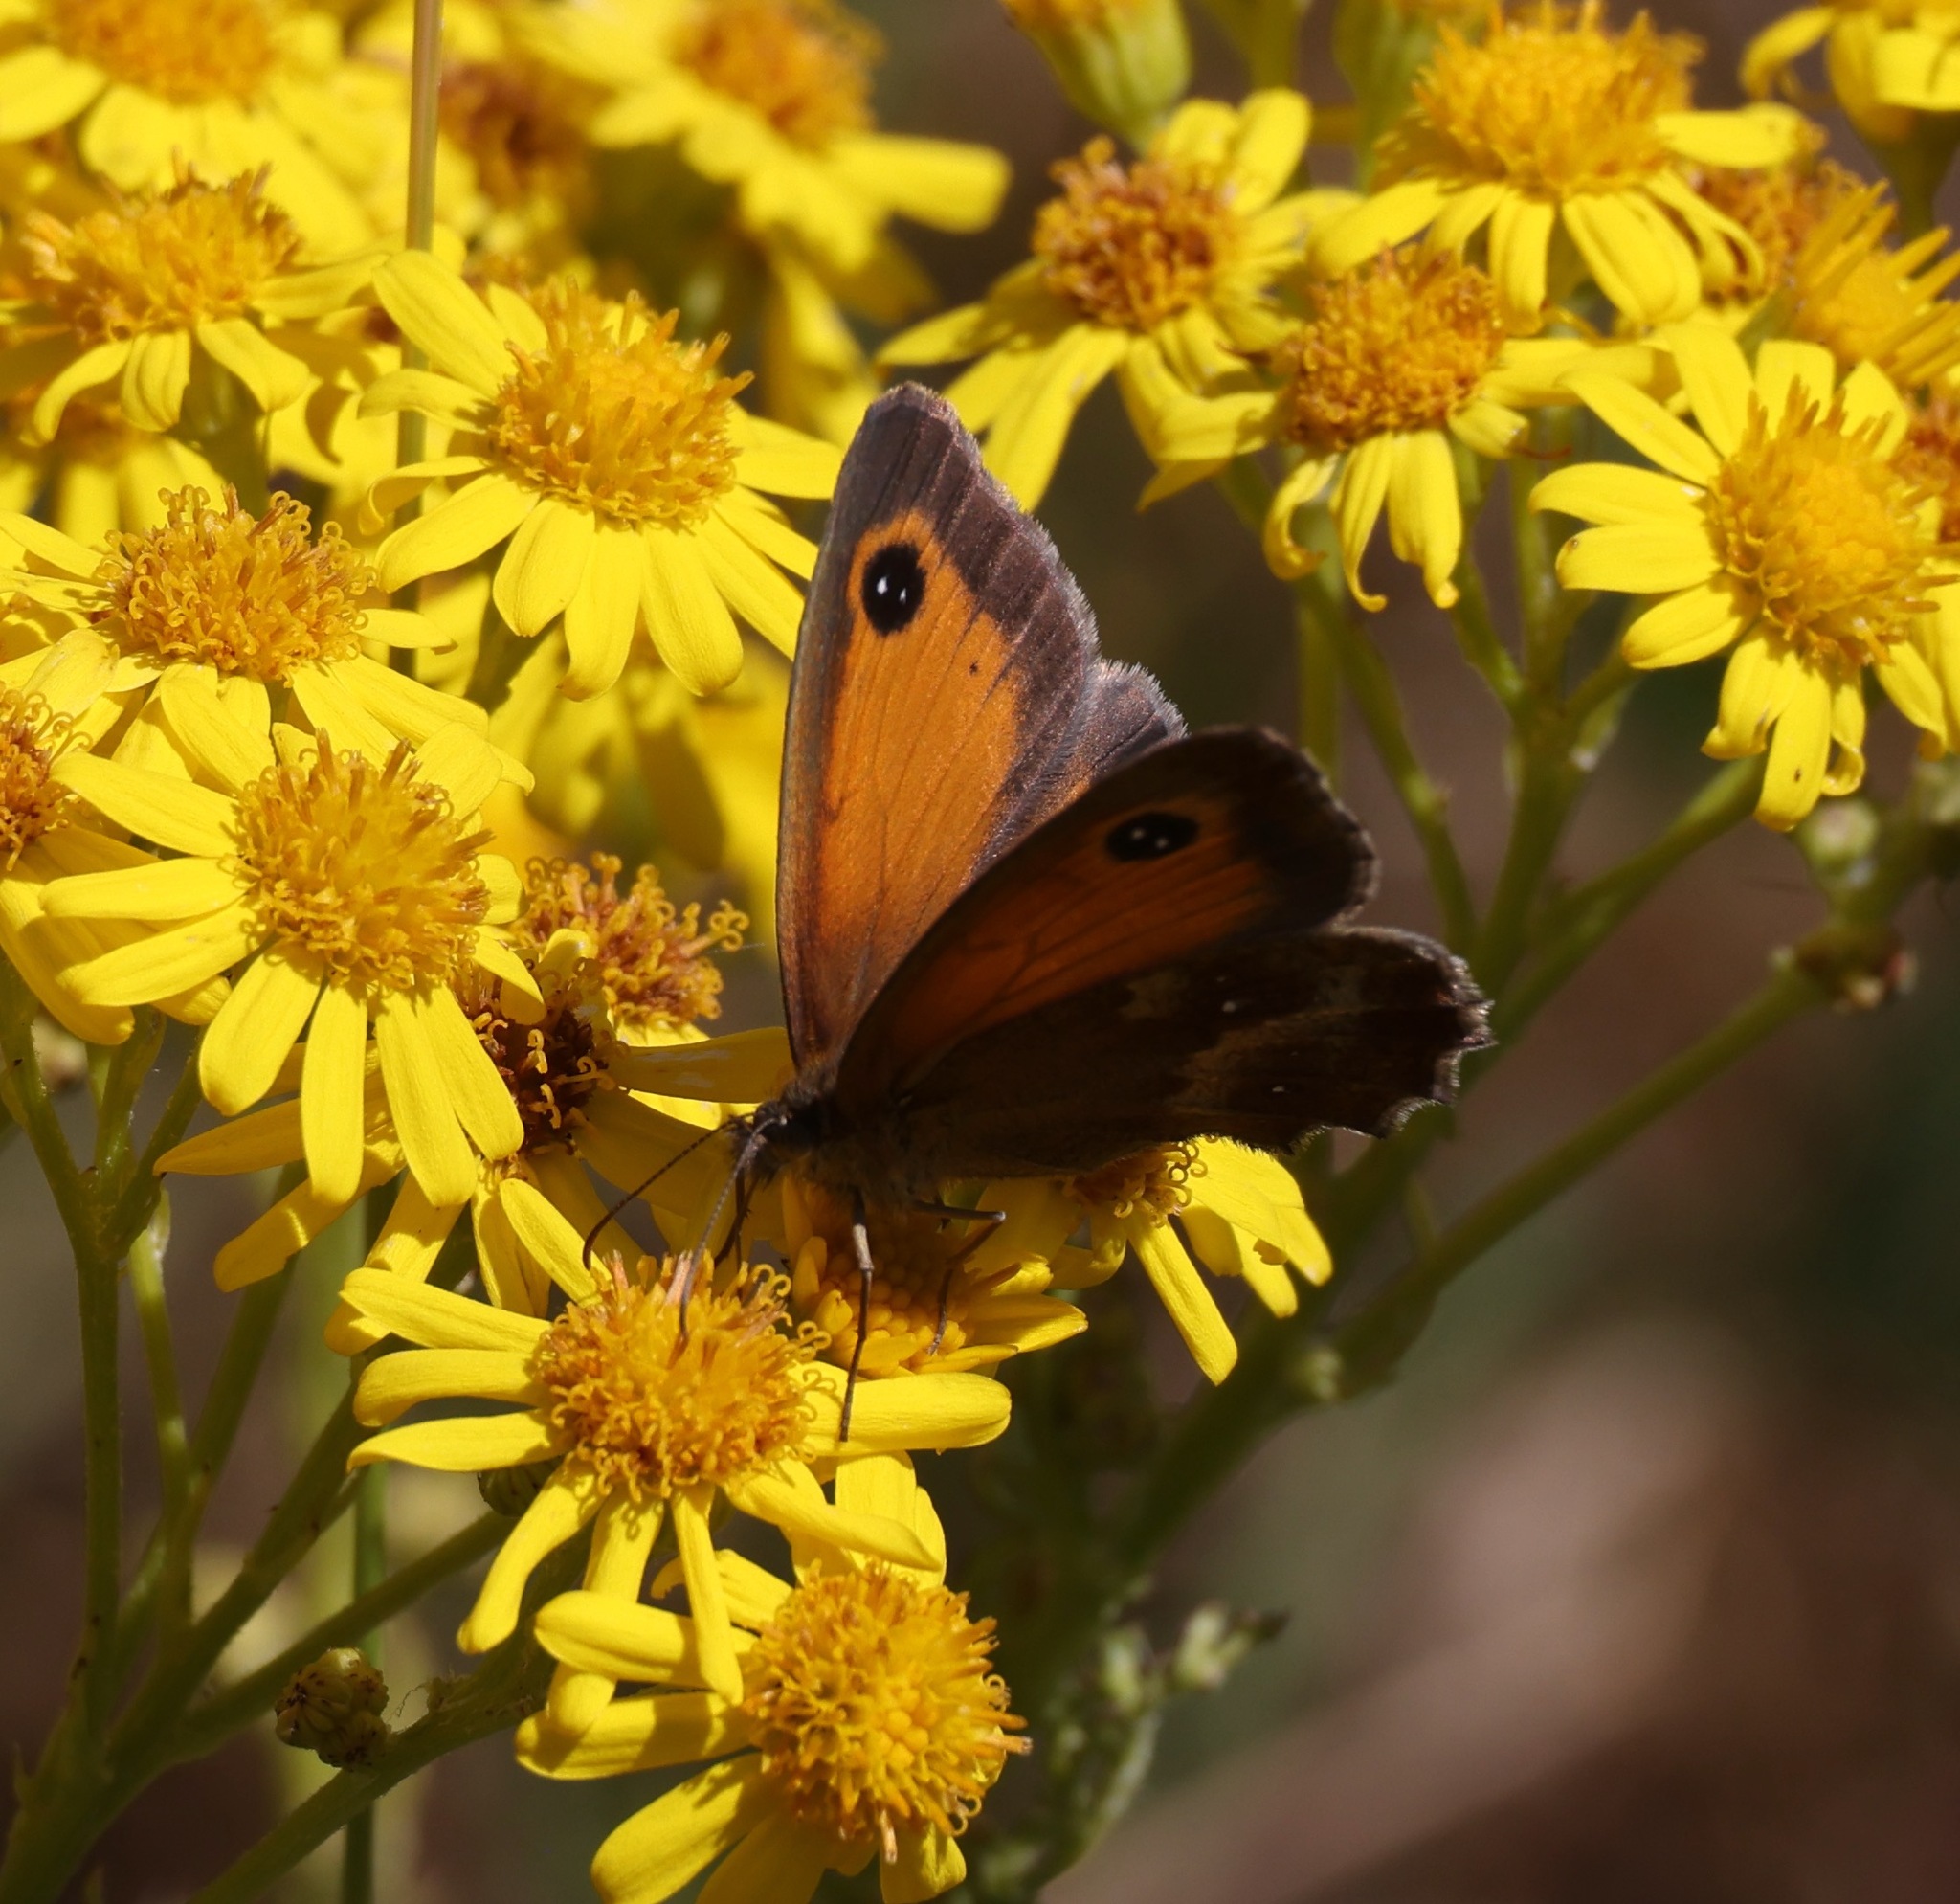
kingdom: Animalia
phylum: Arthropoda
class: Insecta
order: Lepidoptera
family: Nymphalidae
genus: Pyronia
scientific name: Pyronia tithonus
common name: Gatekeeper
